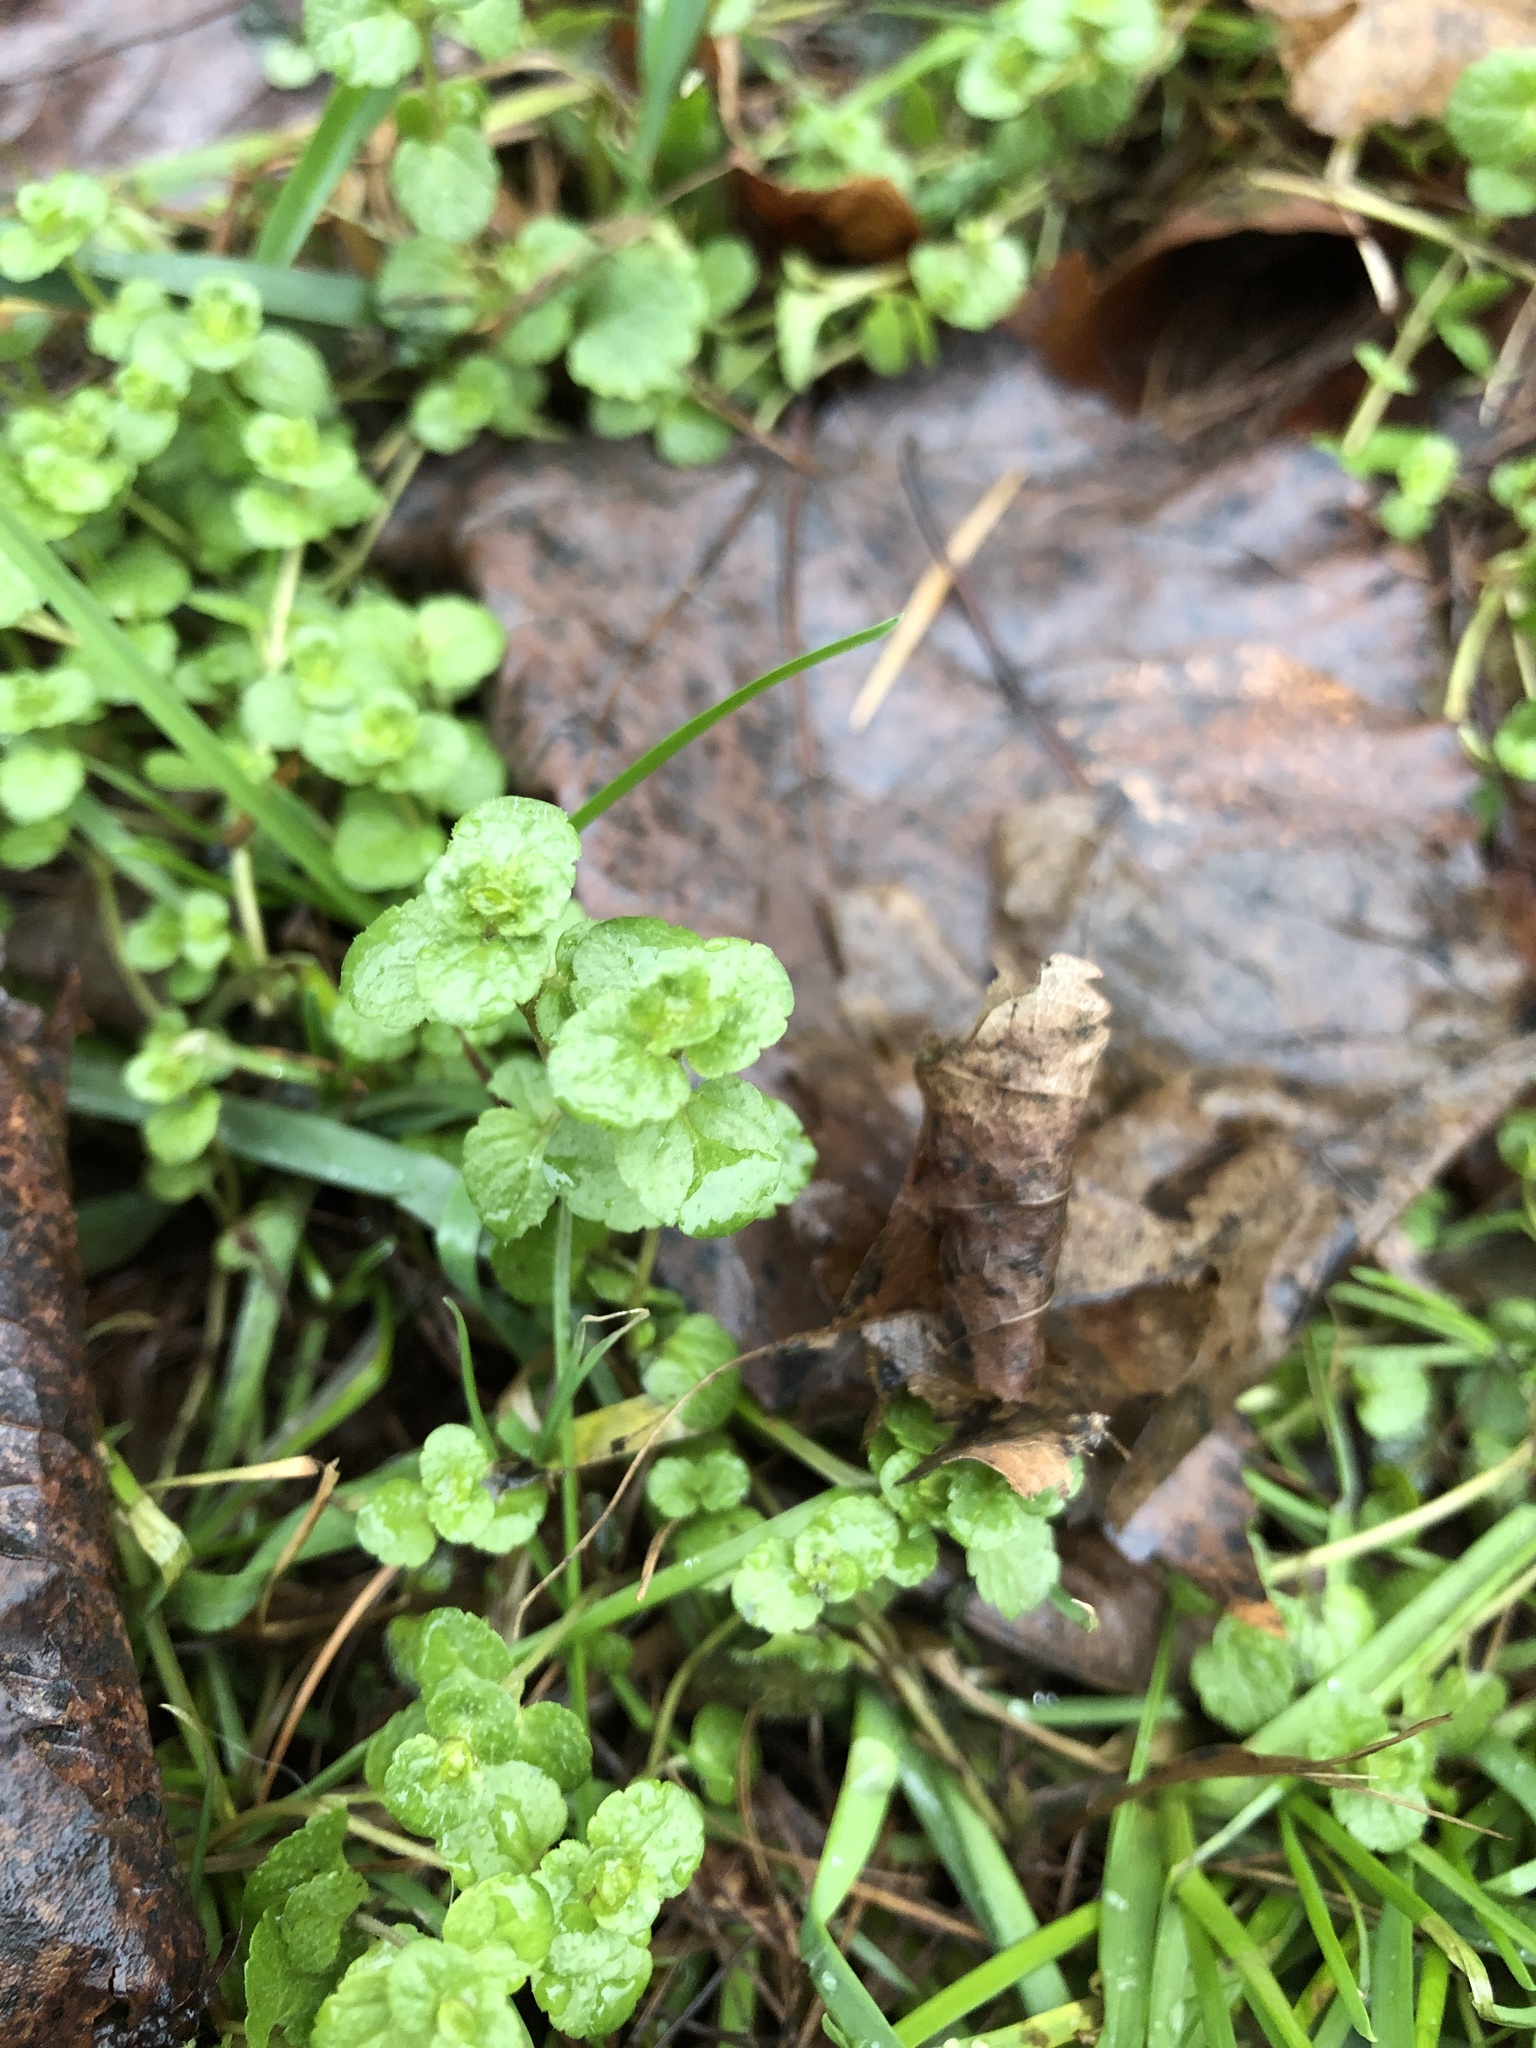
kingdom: Plantae
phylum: Tracheophyta
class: Magnoliopsida
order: Lamiales
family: Plantaginaceae
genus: Veronica
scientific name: Veronica filiformis
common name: Slender speedwell
